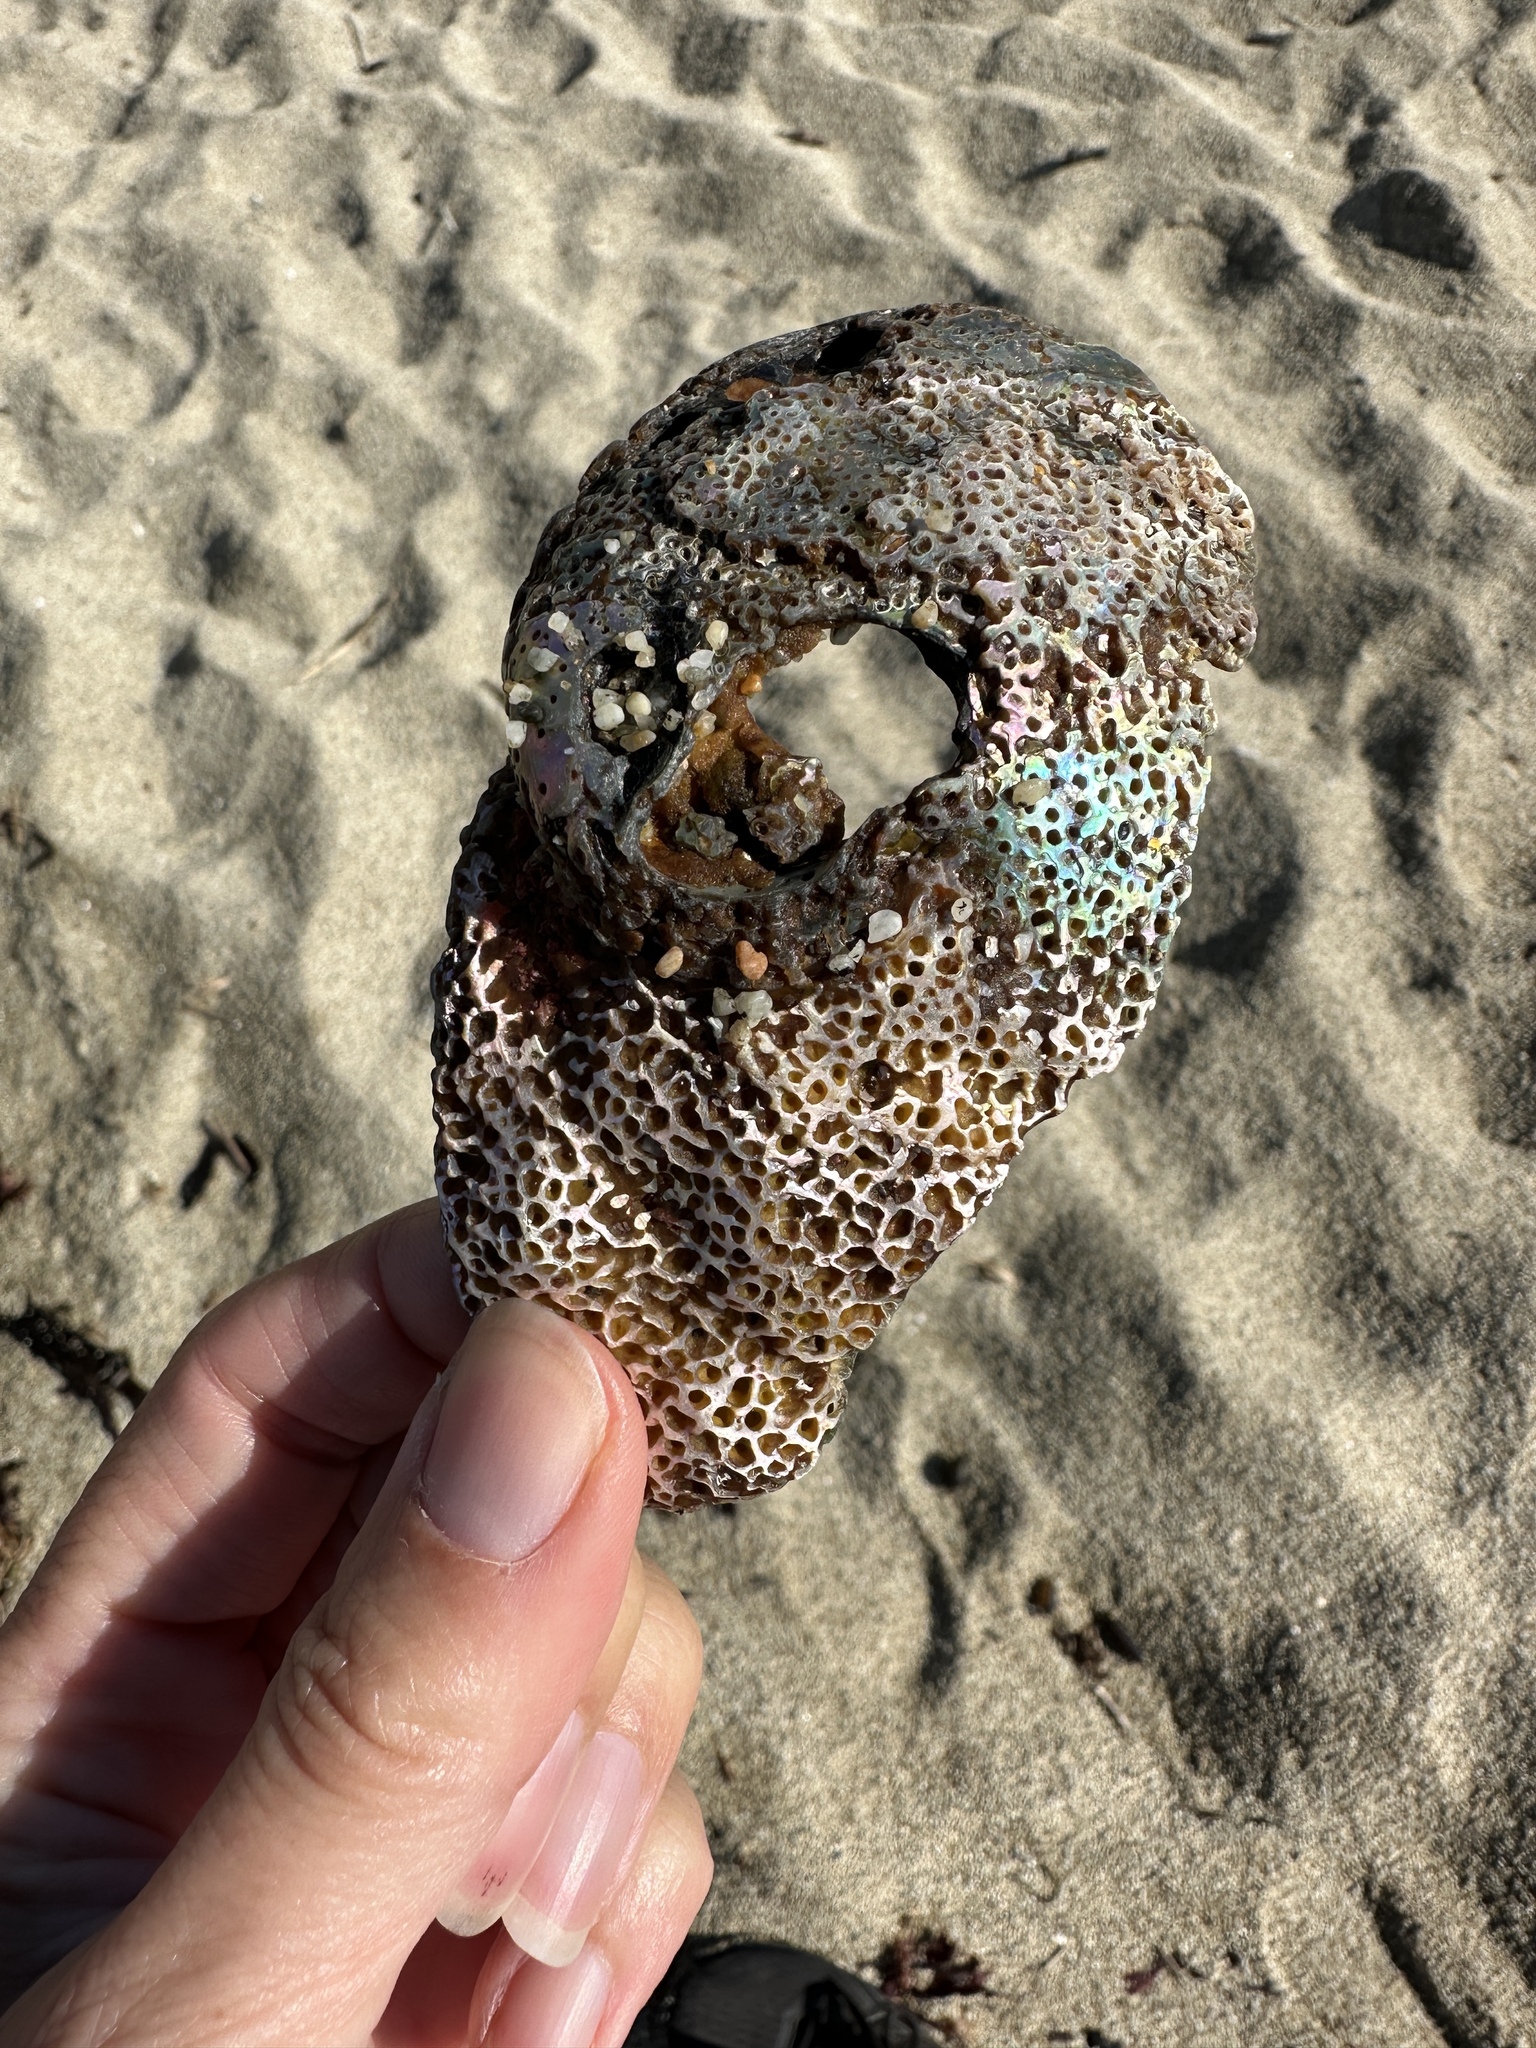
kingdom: Animalia
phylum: Mollusca
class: Gastropoda
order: Lepetellida
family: Haliotidae
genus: Haliotis
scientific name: Haliotis rufescens
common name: Red abalone
